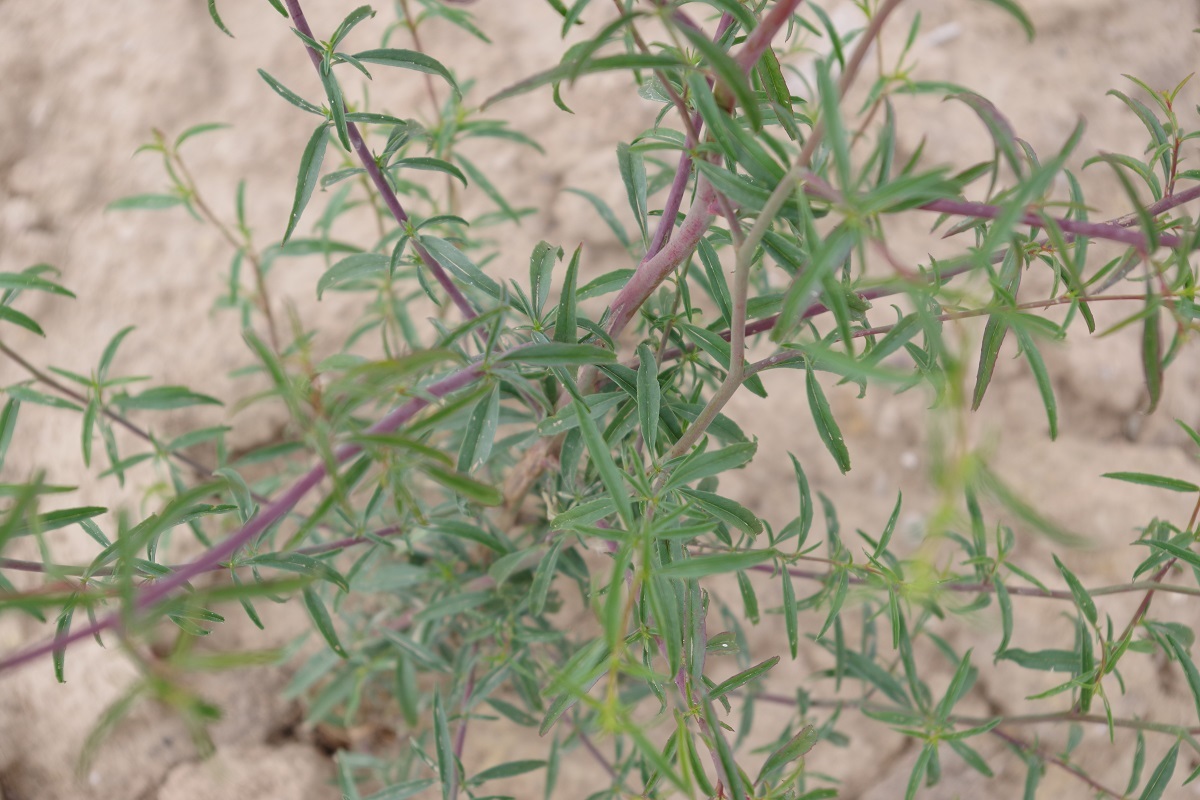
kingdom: Plantae
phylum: Tracheophyta
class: Magnoliopsida
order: Myrtales
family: Onagraceae
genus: Epilobium
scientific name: Epilobium brachycarpum
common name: Annual willowherb
